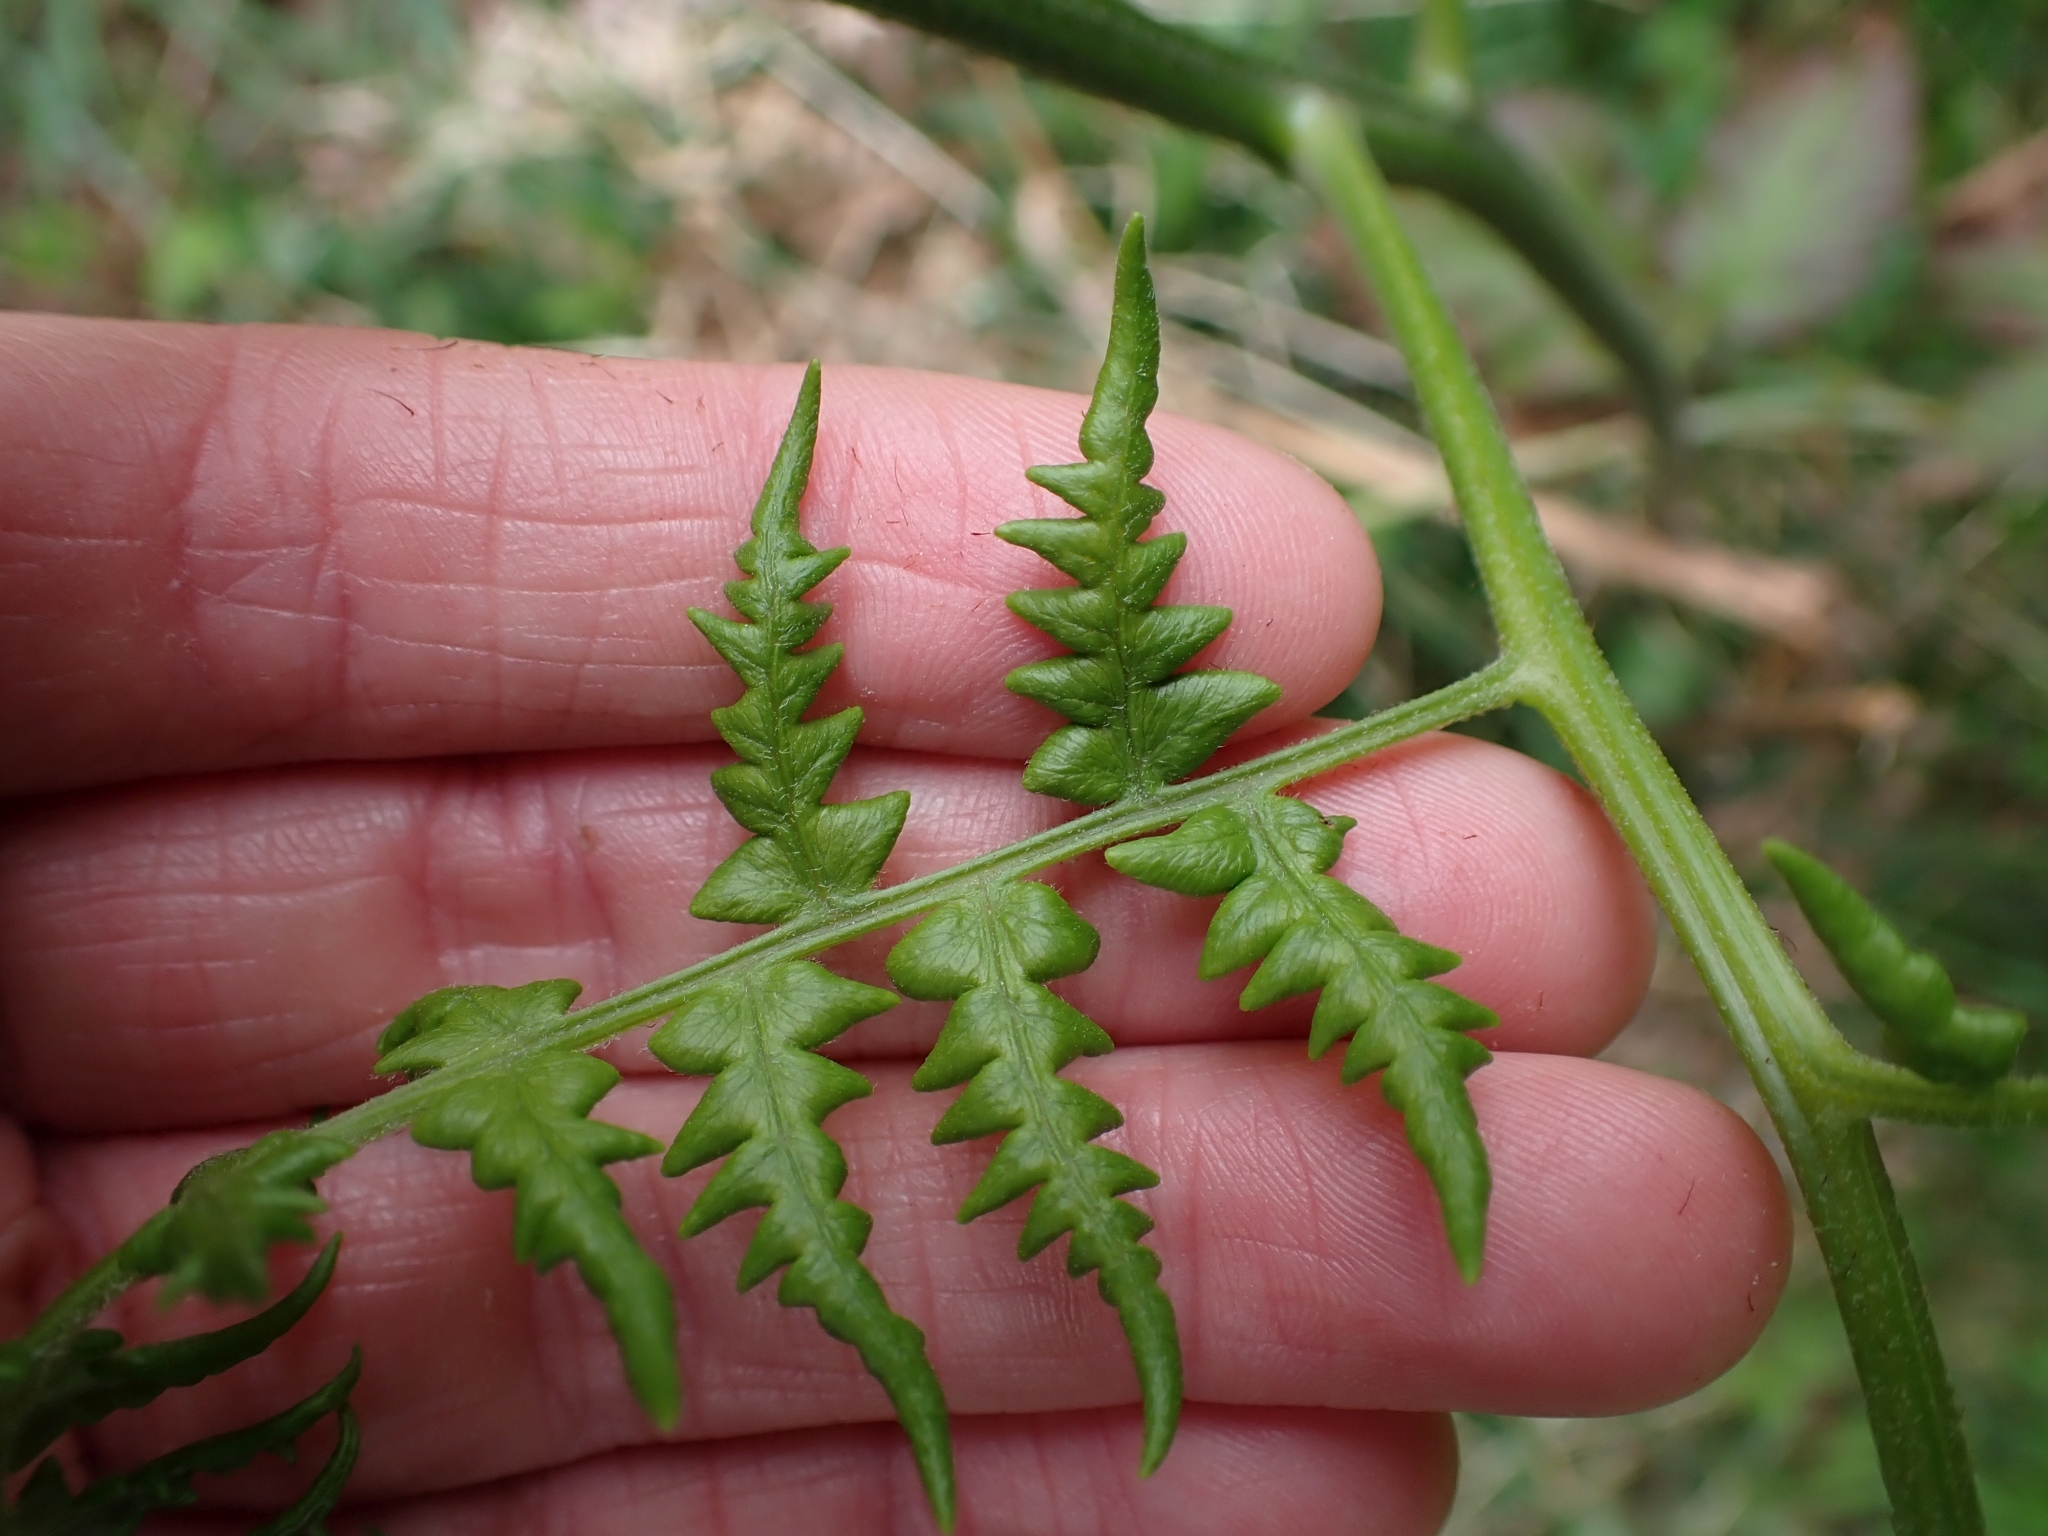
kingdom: Plantae
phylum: Tracheophyta
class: Polypodiopsida
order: Polypodiales
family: Dennstaedtiaceae
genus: Pteridium
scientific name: Pteridium aquilinum
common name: Bracken
